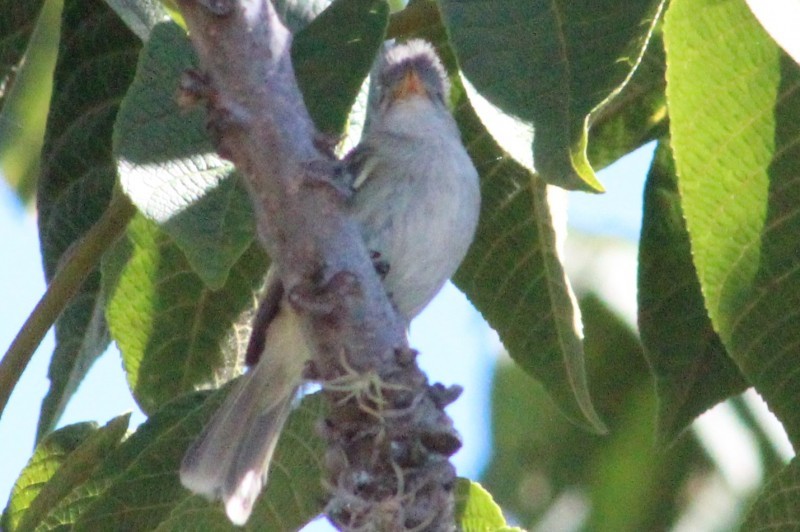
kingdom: Animalia
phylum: Chordata
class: Aves
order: Passeriformes
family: Tyrannidae
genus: Camptostoma
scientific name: Camptostoma obsoletum
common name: Southern beardless-tyrannulet
